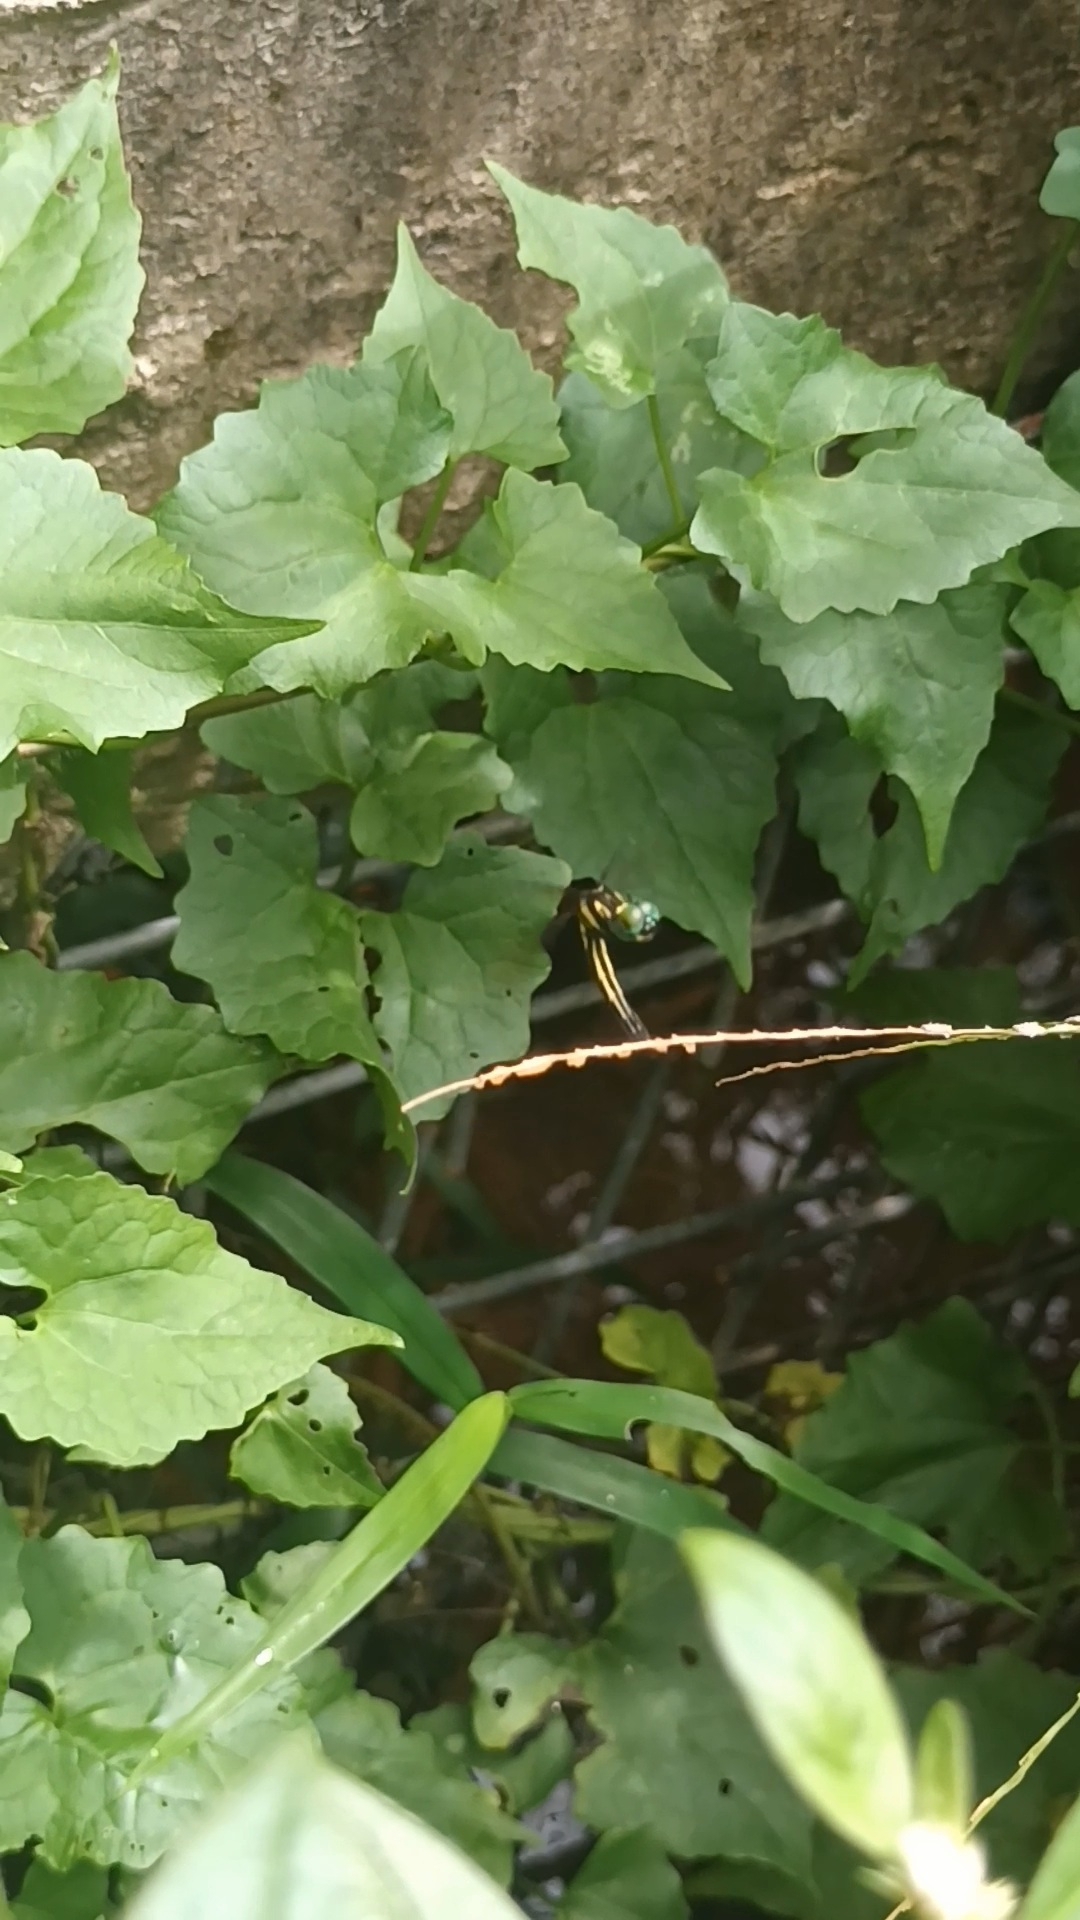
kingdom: Animalia
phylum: Arthropoda
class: Insecta
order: Odonata
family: Libellulidae
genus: Tetrathemis
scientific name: Tetrathemis platyptera
